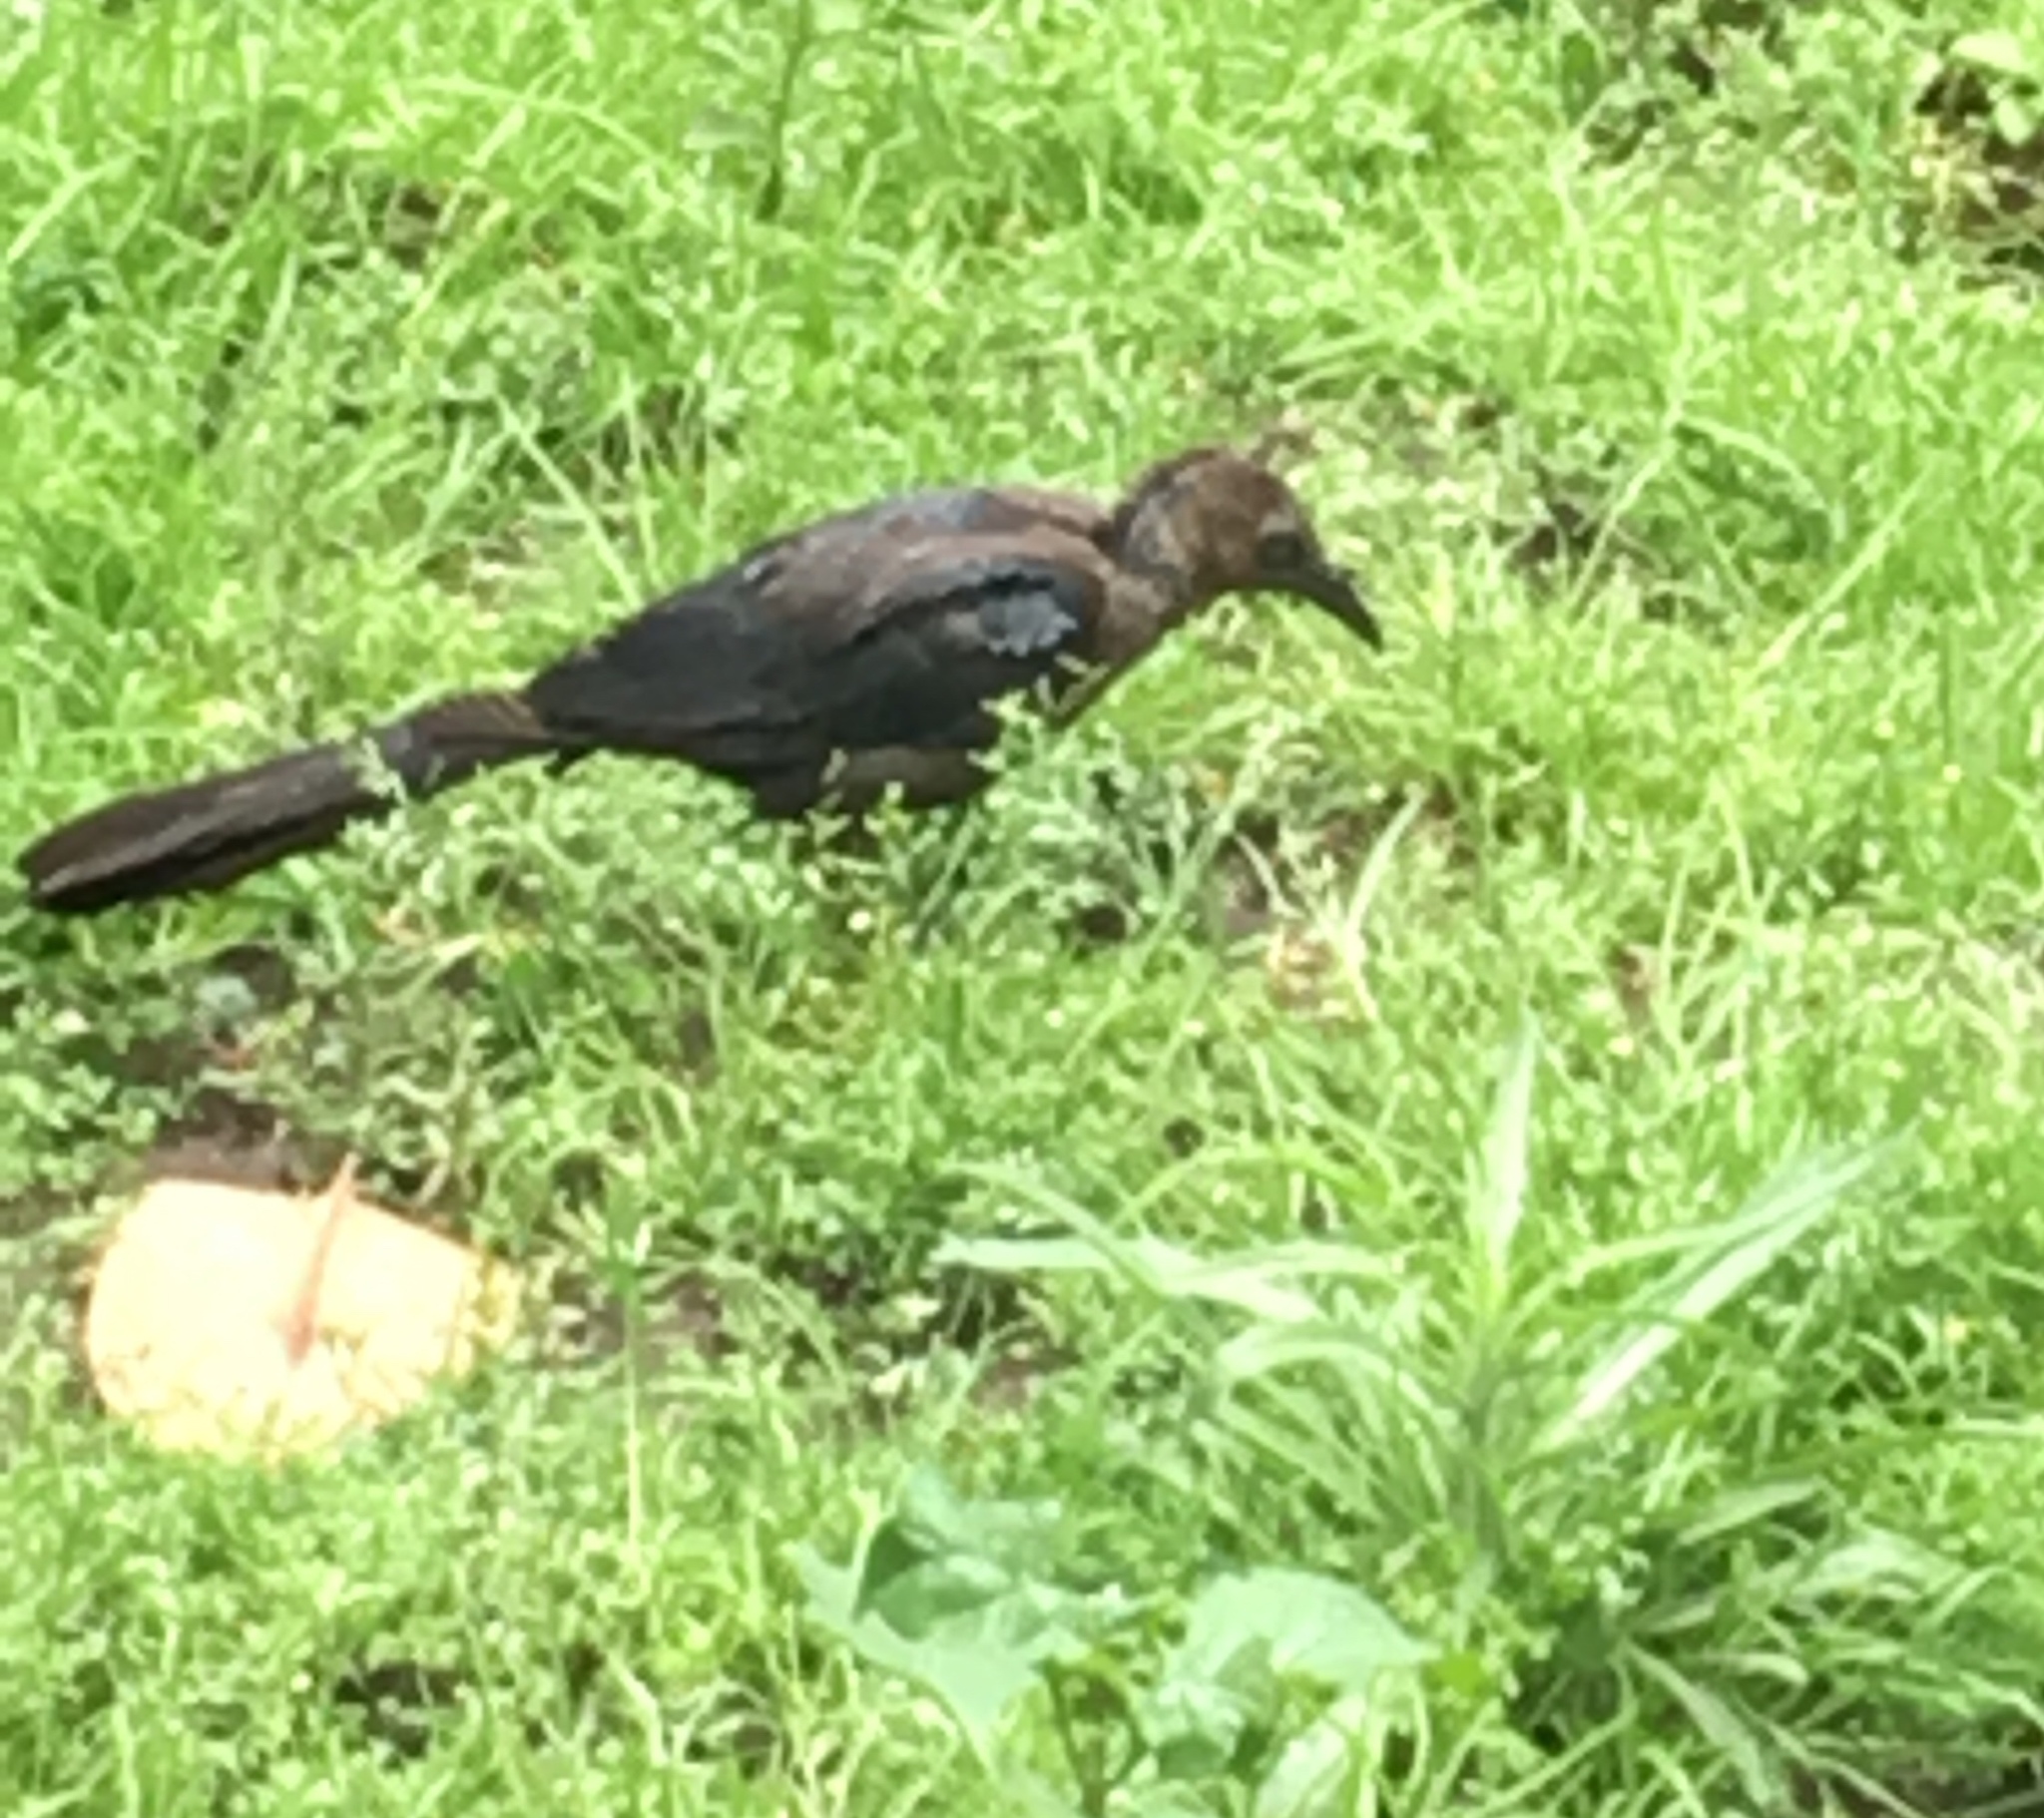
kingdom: Animalia
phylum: Chordata
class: Aves
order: Passeriformes
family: Icteridae
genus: Quiscalus
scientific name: Quiscalus mexicanus
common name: Great-tailed grackle
